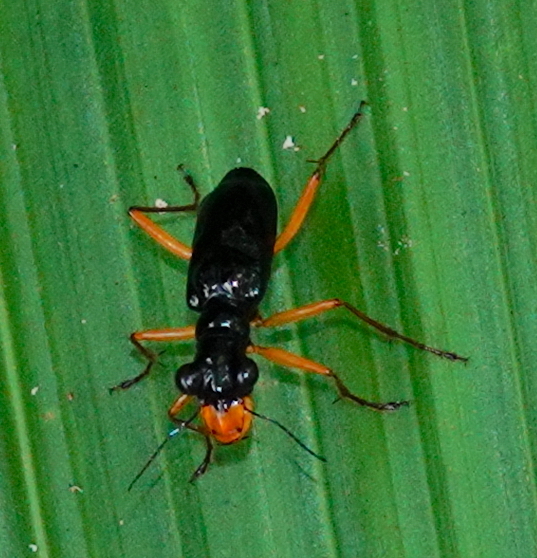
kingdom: Animalia
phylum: Arthropoda
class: Insecta
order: Coleoptera
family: Carabidae
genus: Therates
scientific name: Therates labiatus
